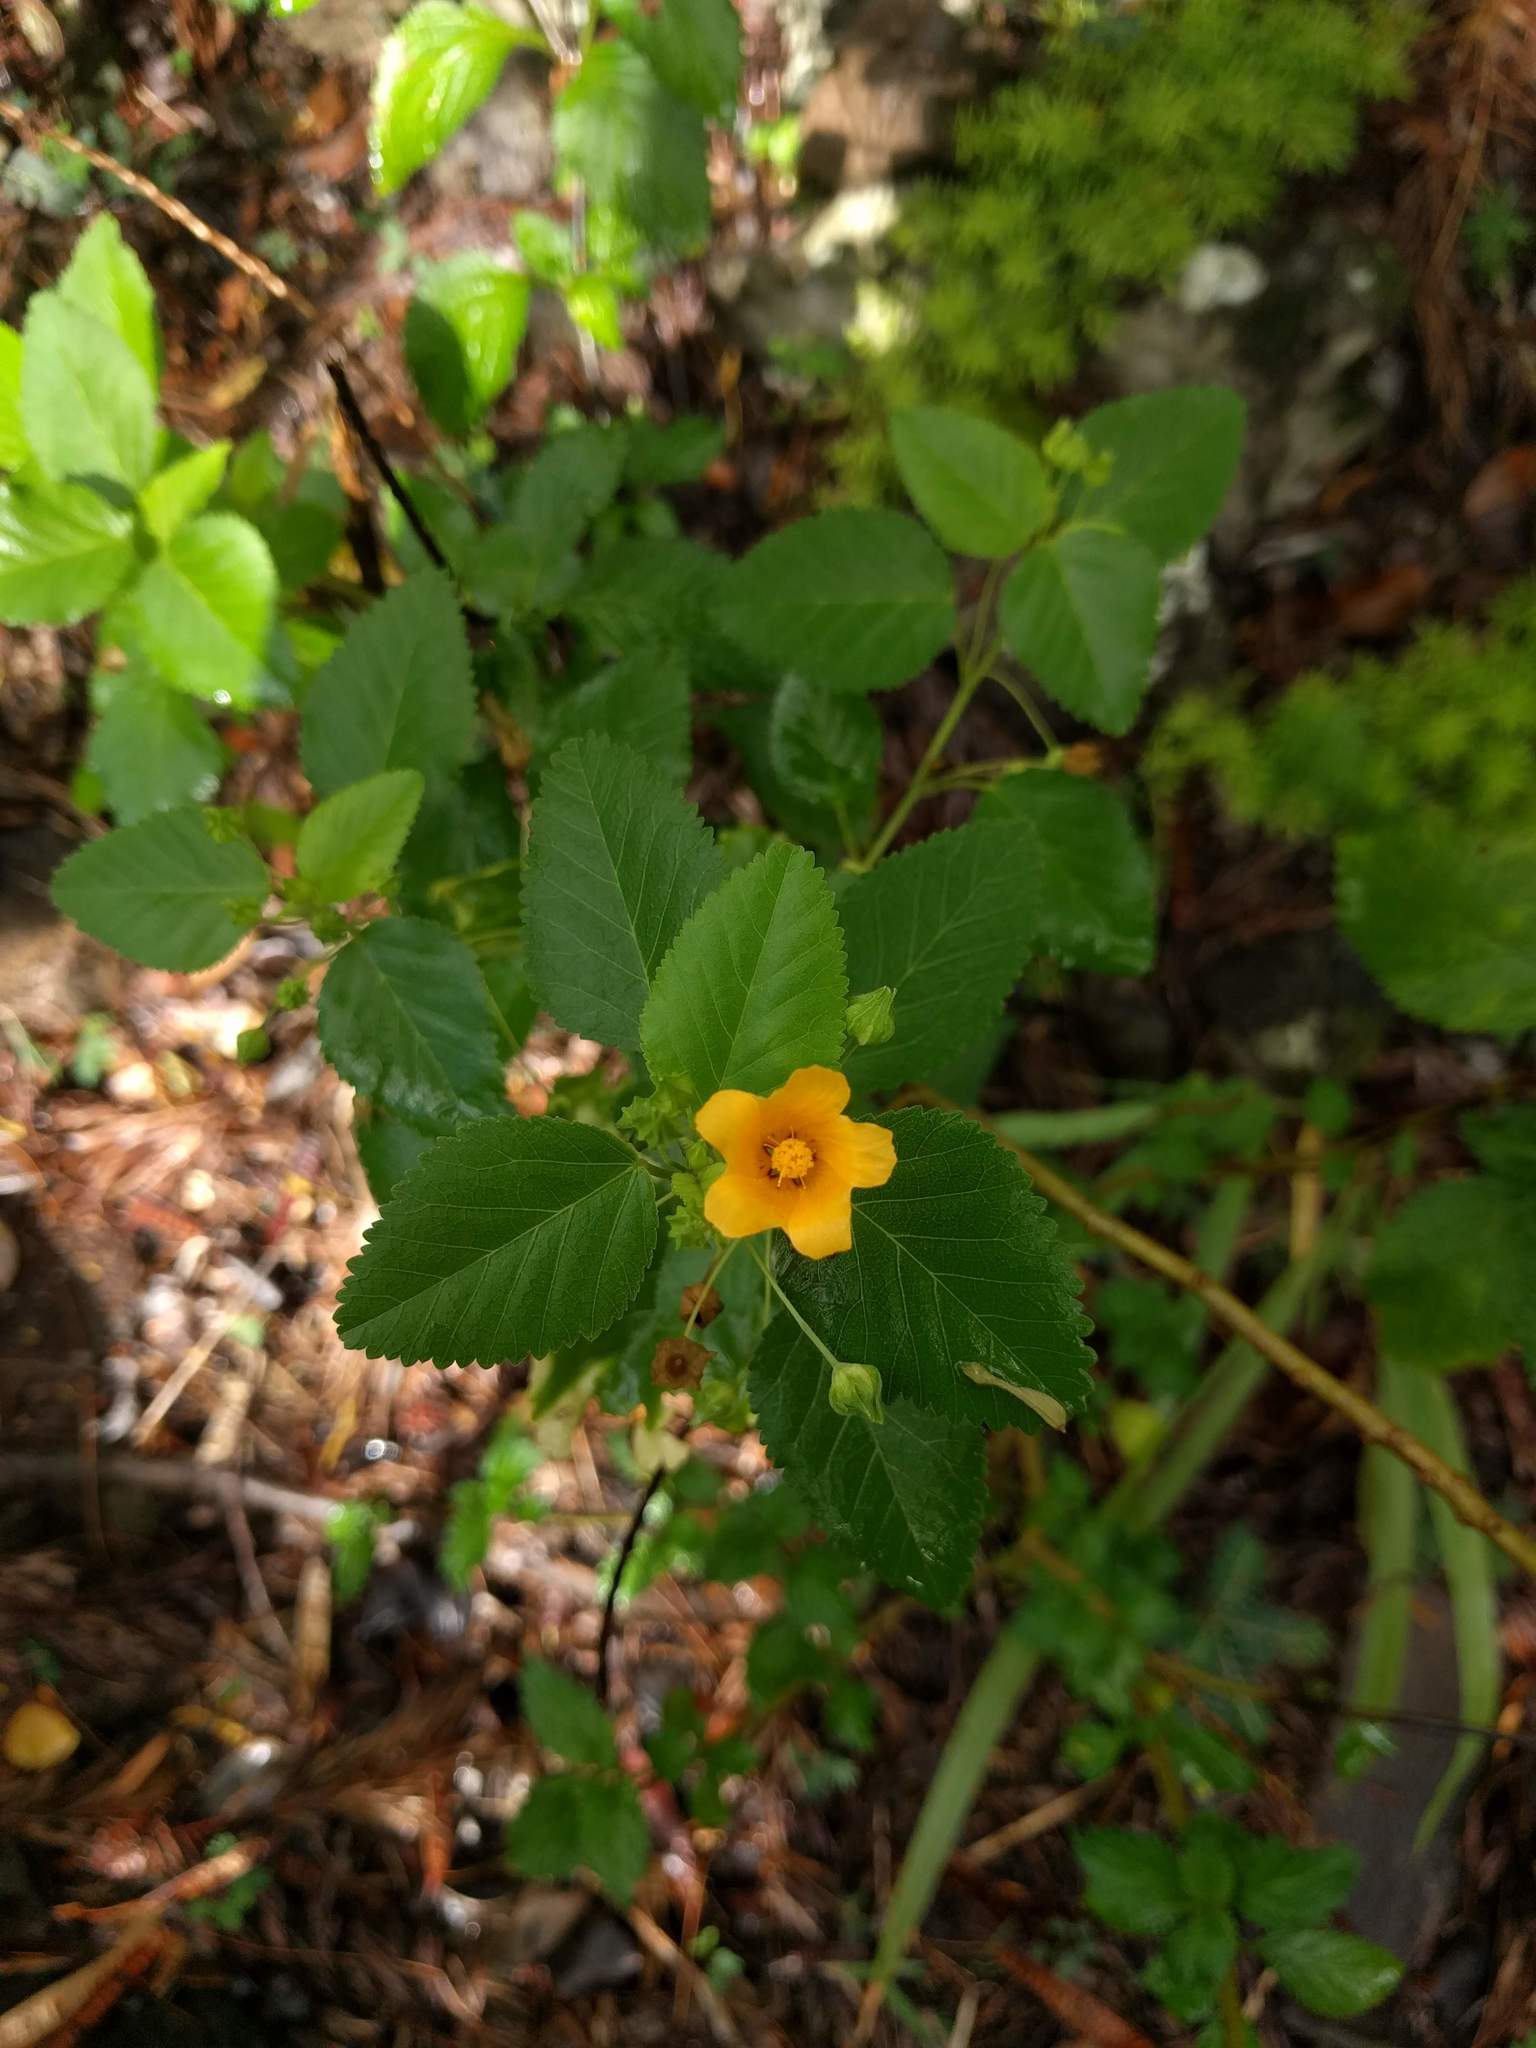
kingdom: Plantae
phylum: Tracheophyta
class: Magnoliopsida
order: Malvales
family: Malvaceae
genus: Sida
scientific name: Sida fallax
